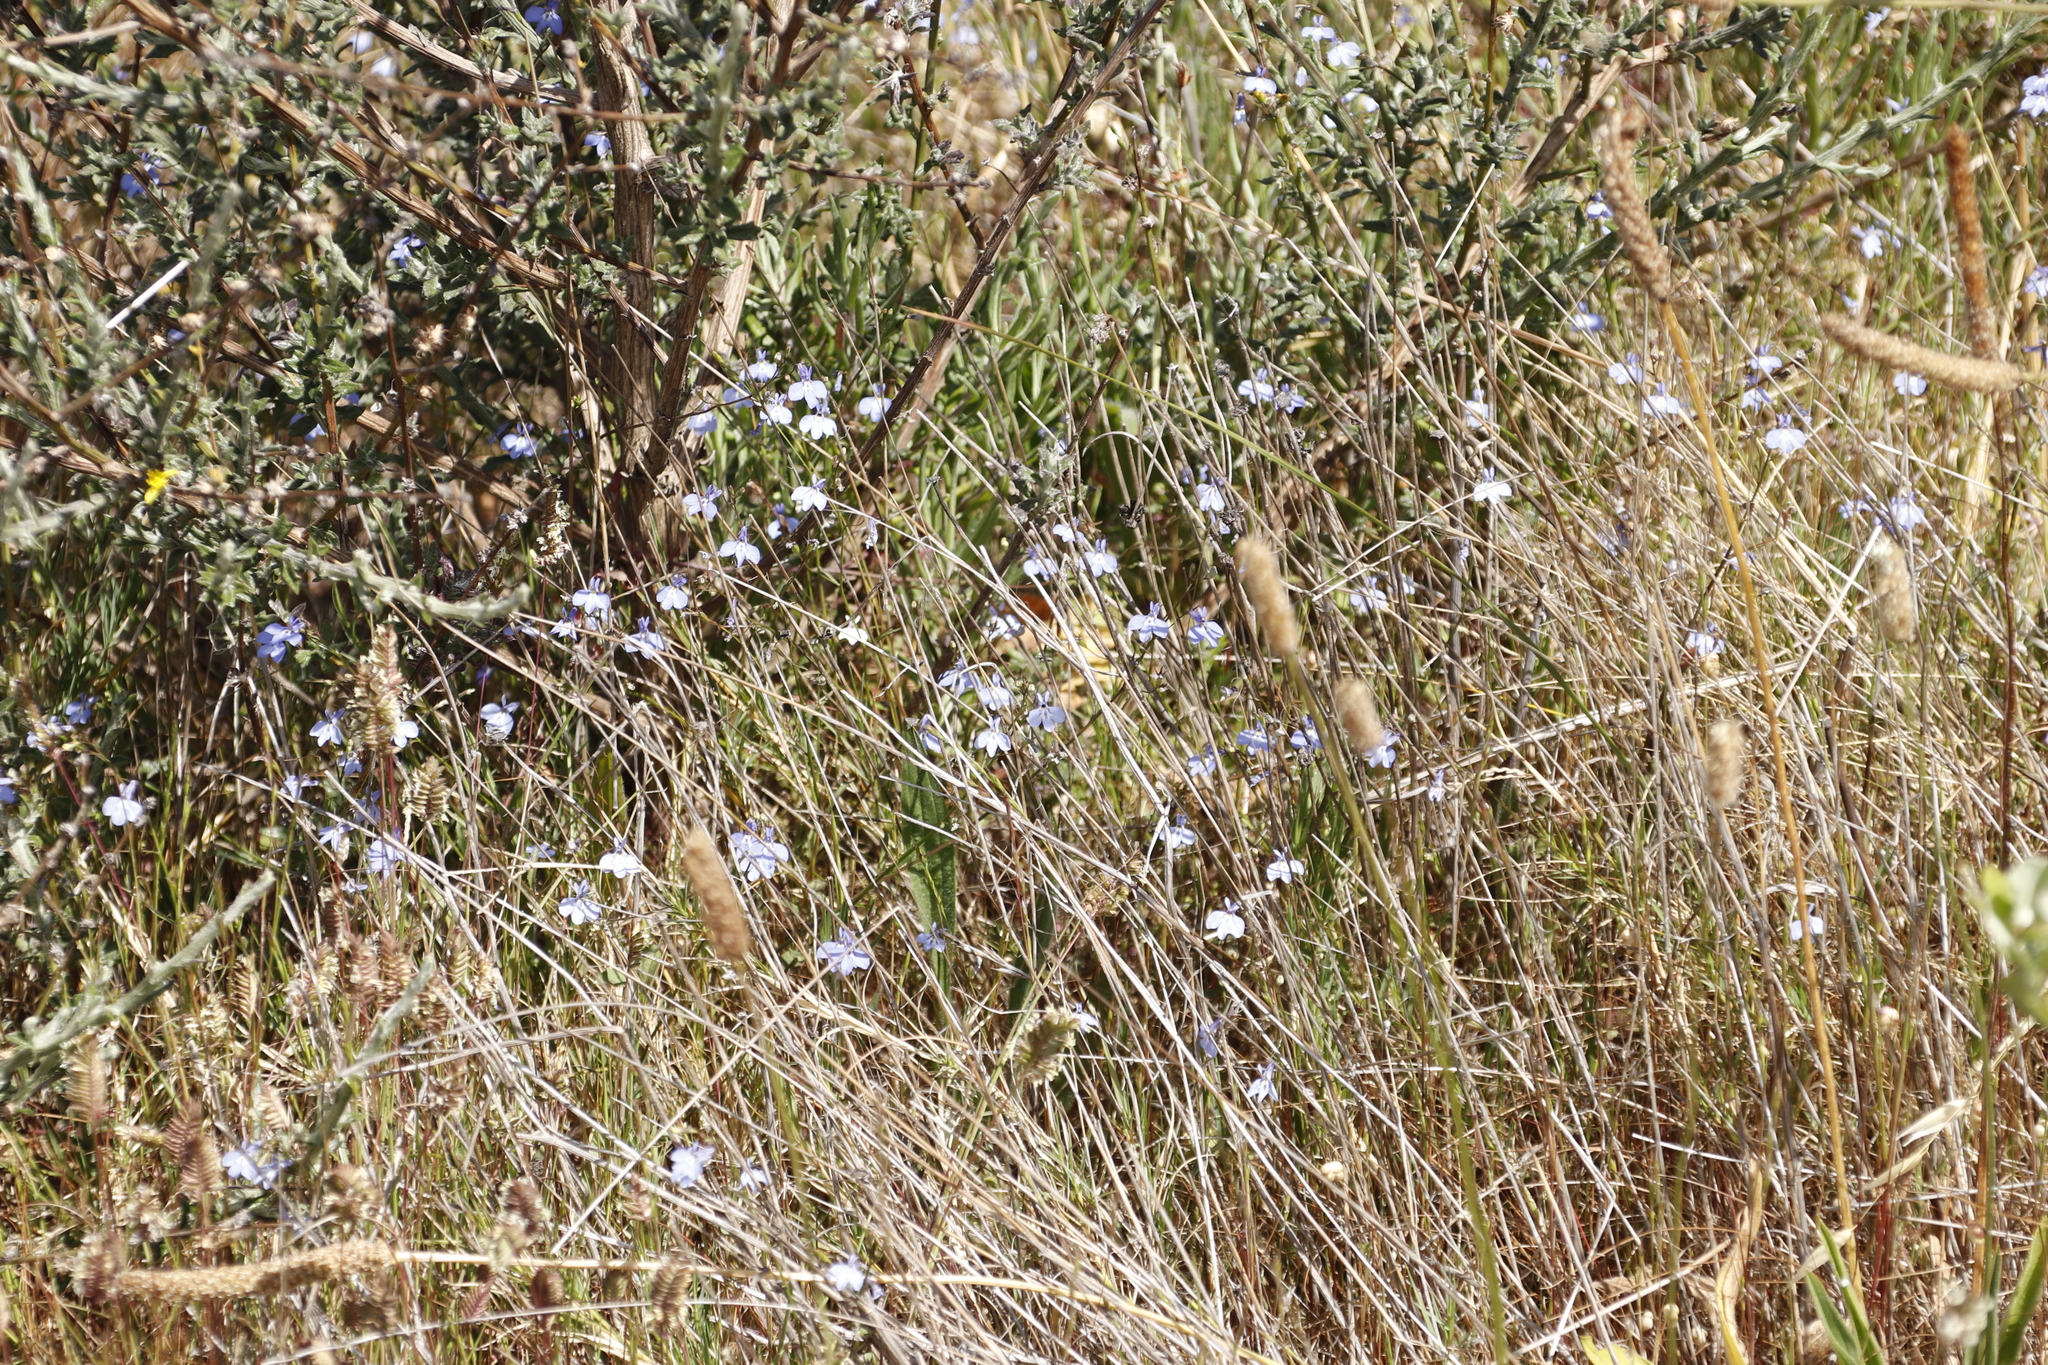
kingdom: Plantae
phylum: Tracheophyta
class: Magnoliopsida
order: Asterales
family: Campanulaceae
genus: Lobelia
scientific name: Lobelia erinus
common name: Edging lobelia
